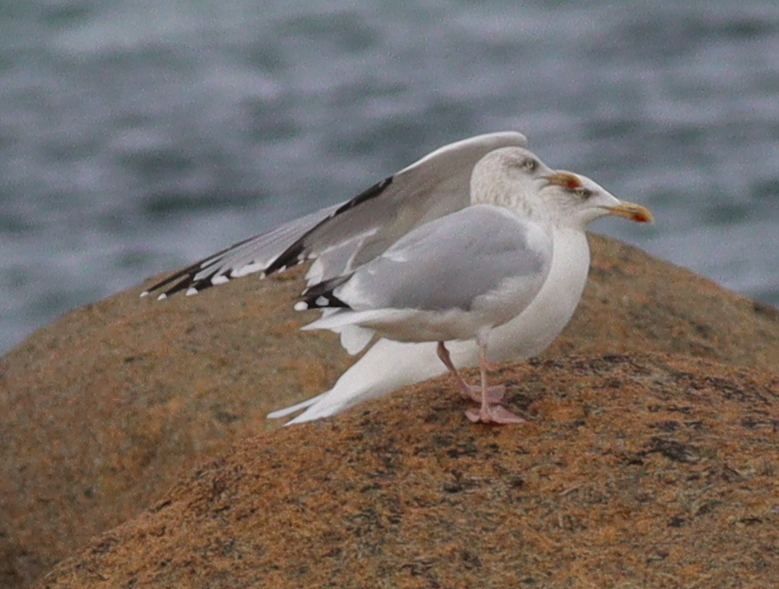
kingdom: Animalia
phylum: Chordata
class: Aves
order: Charadriiformes
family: Laridae
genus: Larus
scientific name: Larus argentatus
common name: Herring gull
